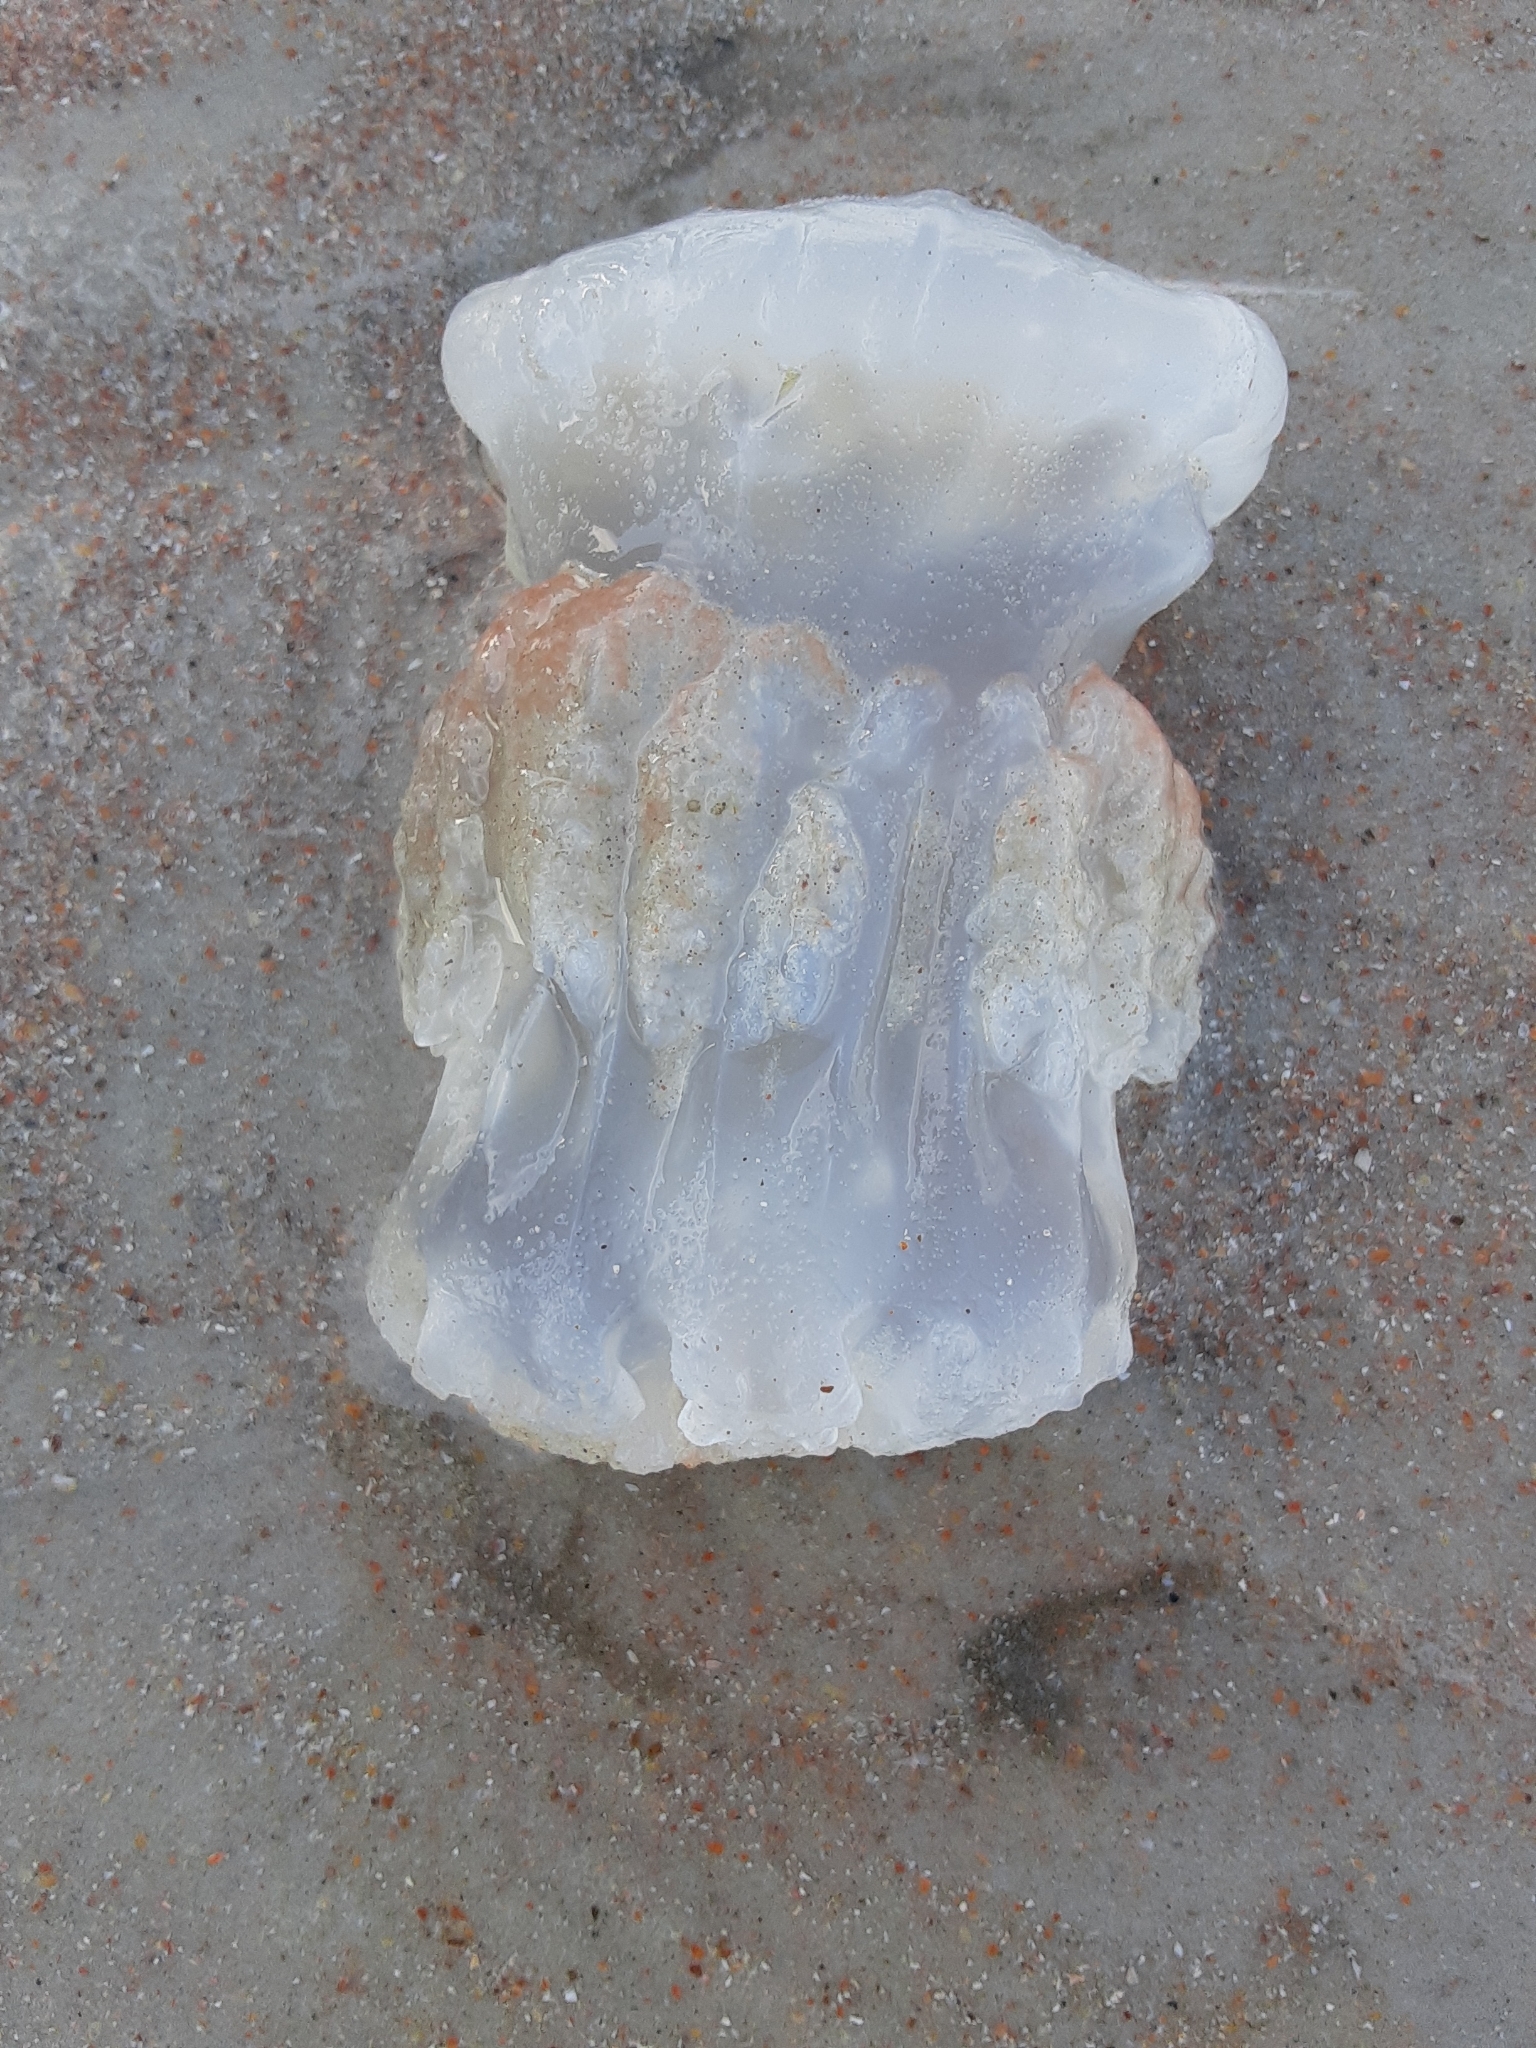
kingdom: Animalia
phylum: Cnidaria
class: Scyphozoa
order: Rhizostomeae
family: Stomolophidae
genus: Stomolophus
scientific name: Stomolophus meleagris
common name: Cabbagehead
